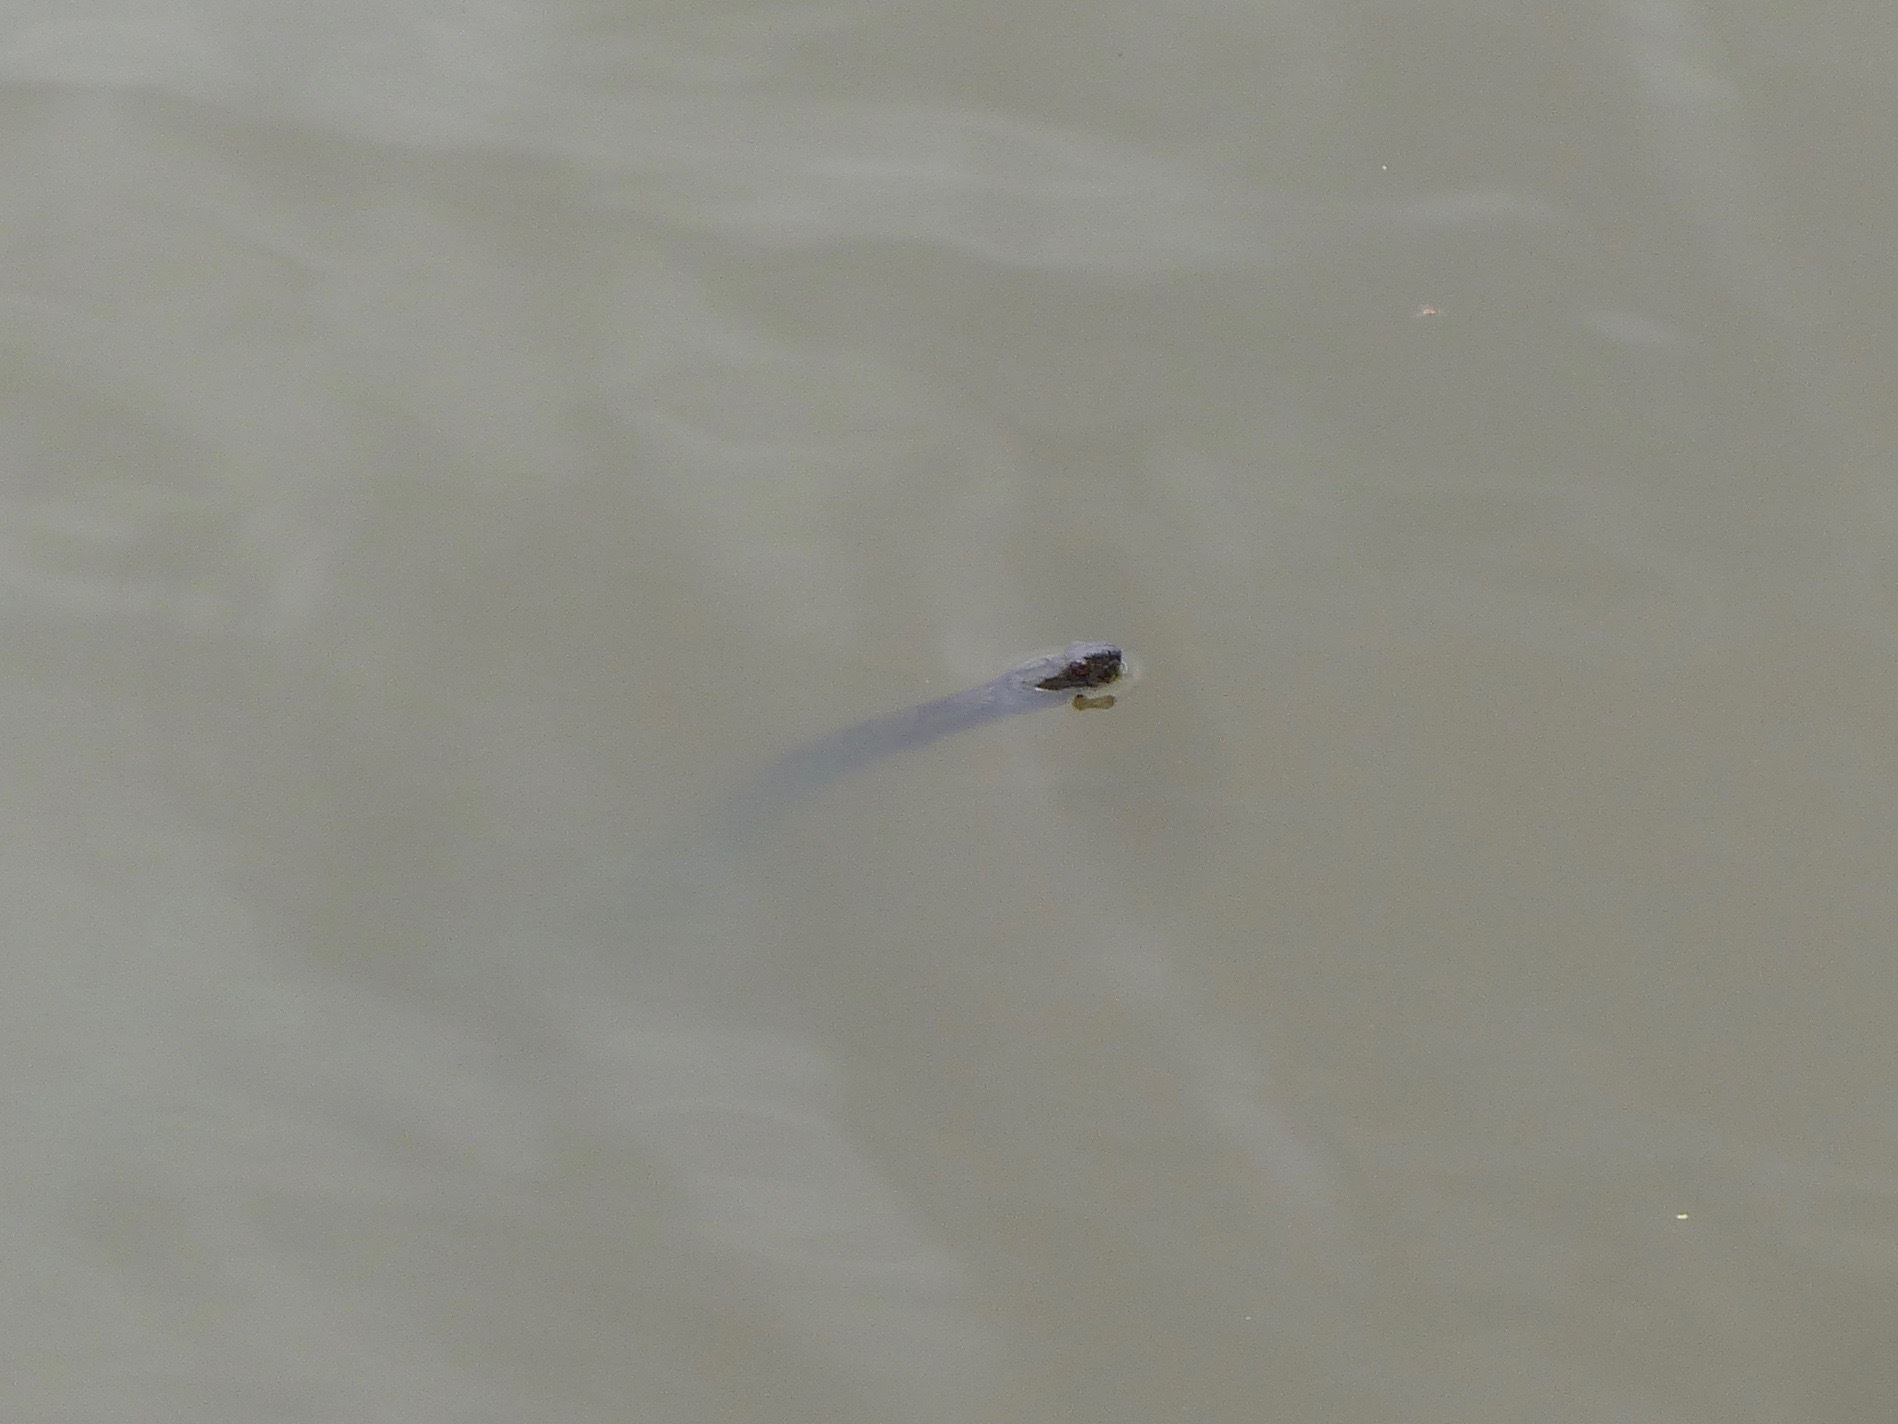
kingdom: Animalia
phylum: Chordata
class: Squamata
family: Colubridae
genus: Nerodia
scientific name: Nerodia rhombifer
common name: Diamondback water snake
